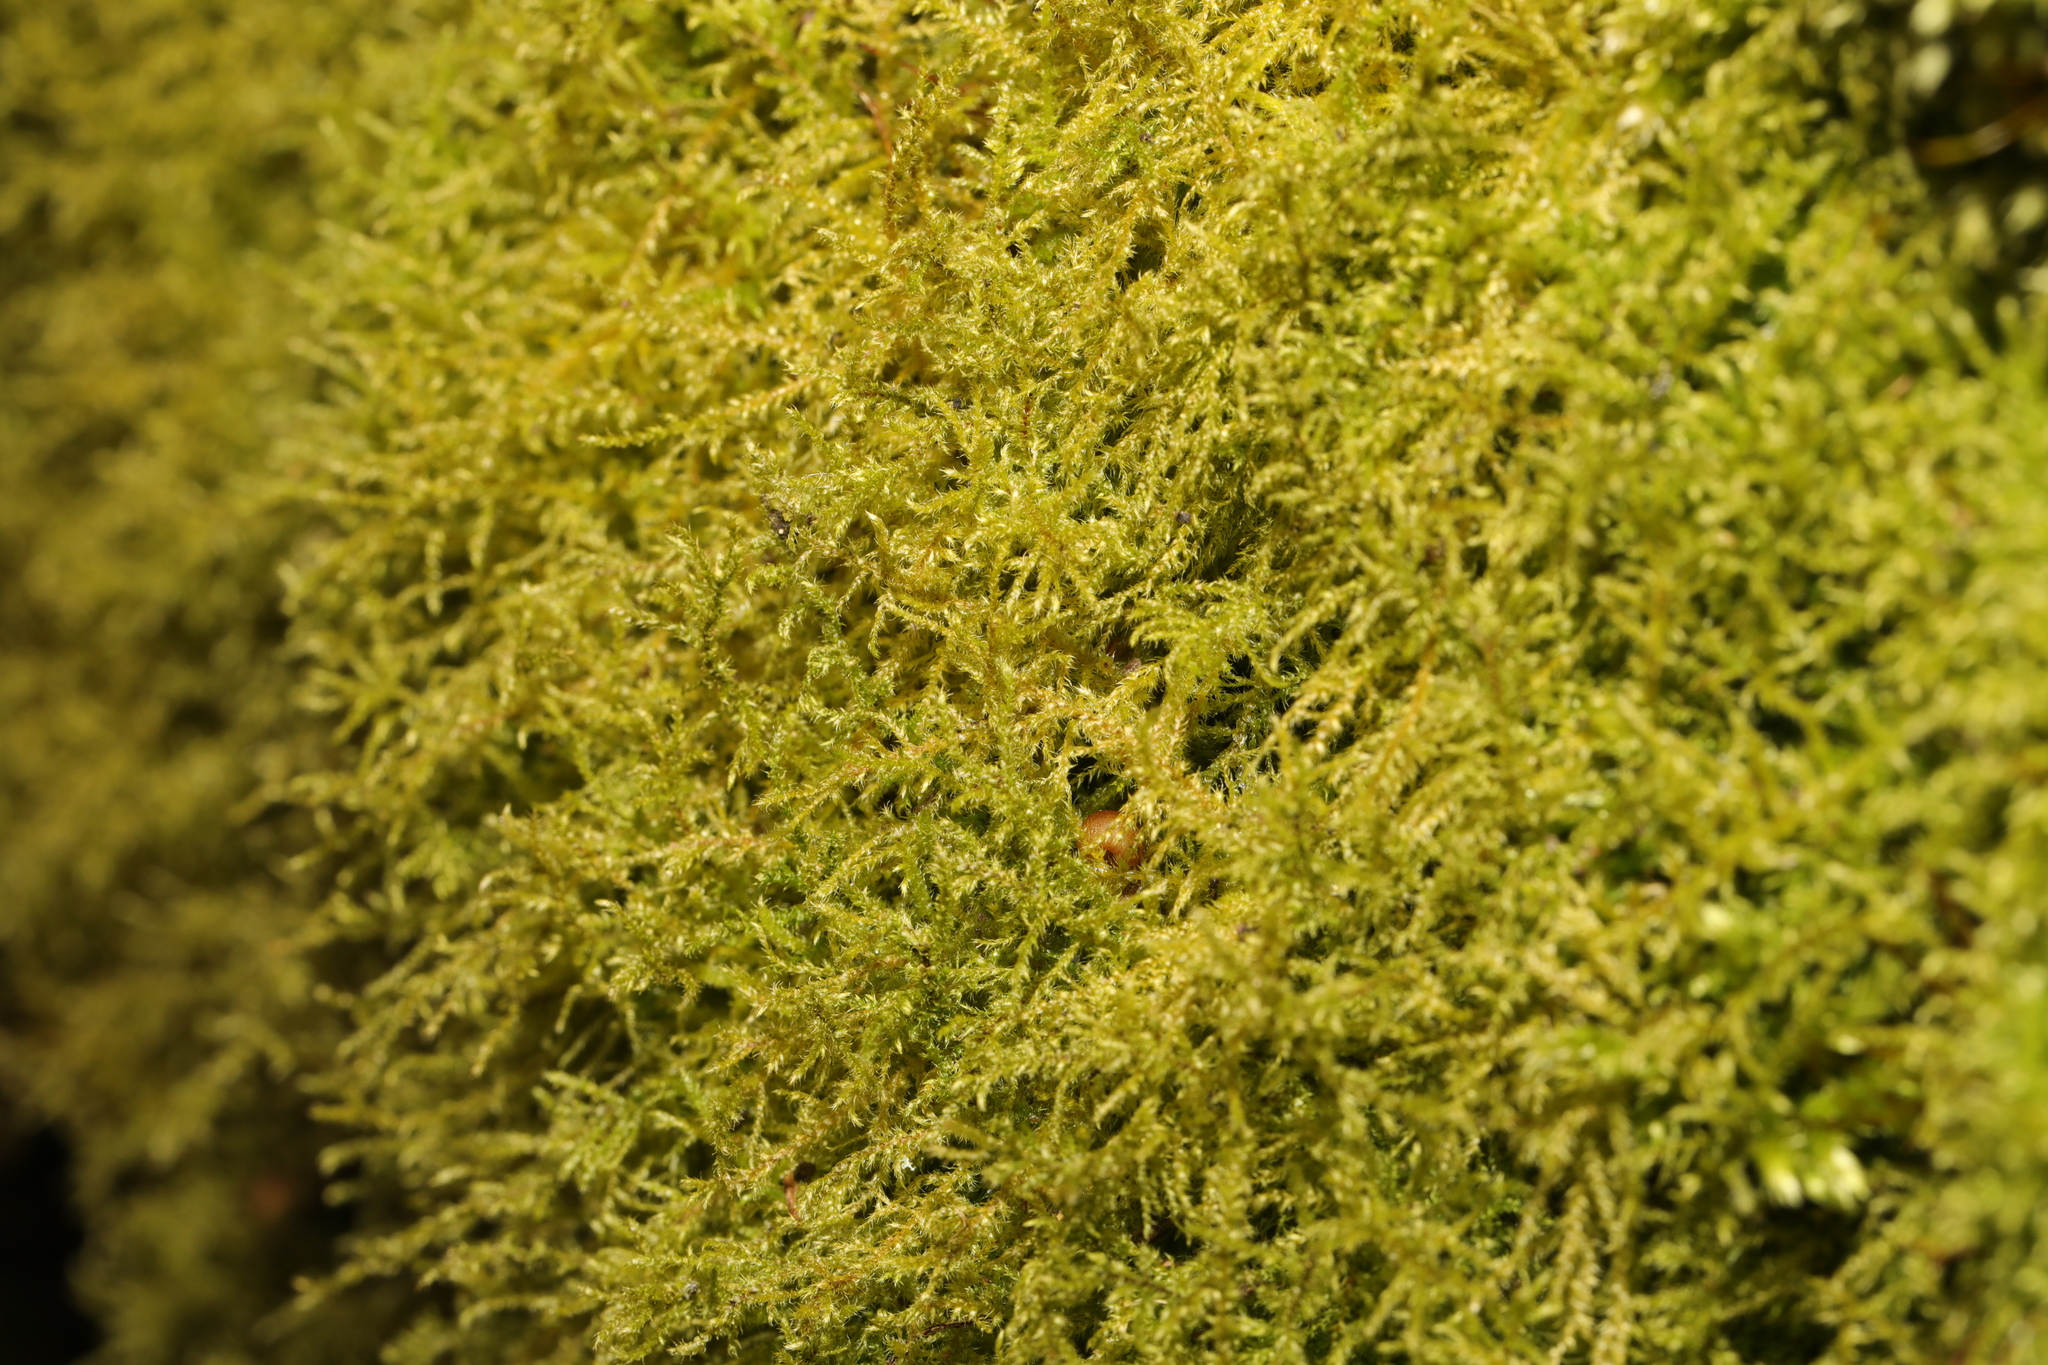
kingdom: Plantae
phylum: Bryophyta
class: Bryopsida
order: Hypnales
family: Brachytheciaceae
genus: Kindbergia
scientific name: Kindbergia praelonga
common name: Slender beaked moss
